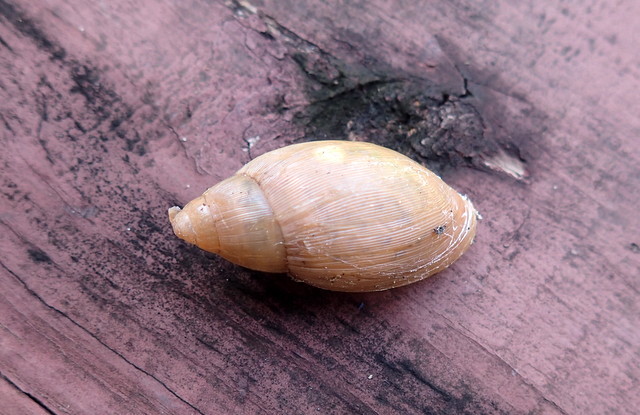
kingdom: Animalia
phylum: Mollusca
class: Gastropoda
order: Stylommatophora
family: Spiraxidae
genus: Euglandina
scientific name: Euglandina rosea
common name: Rosy wolfsnail
